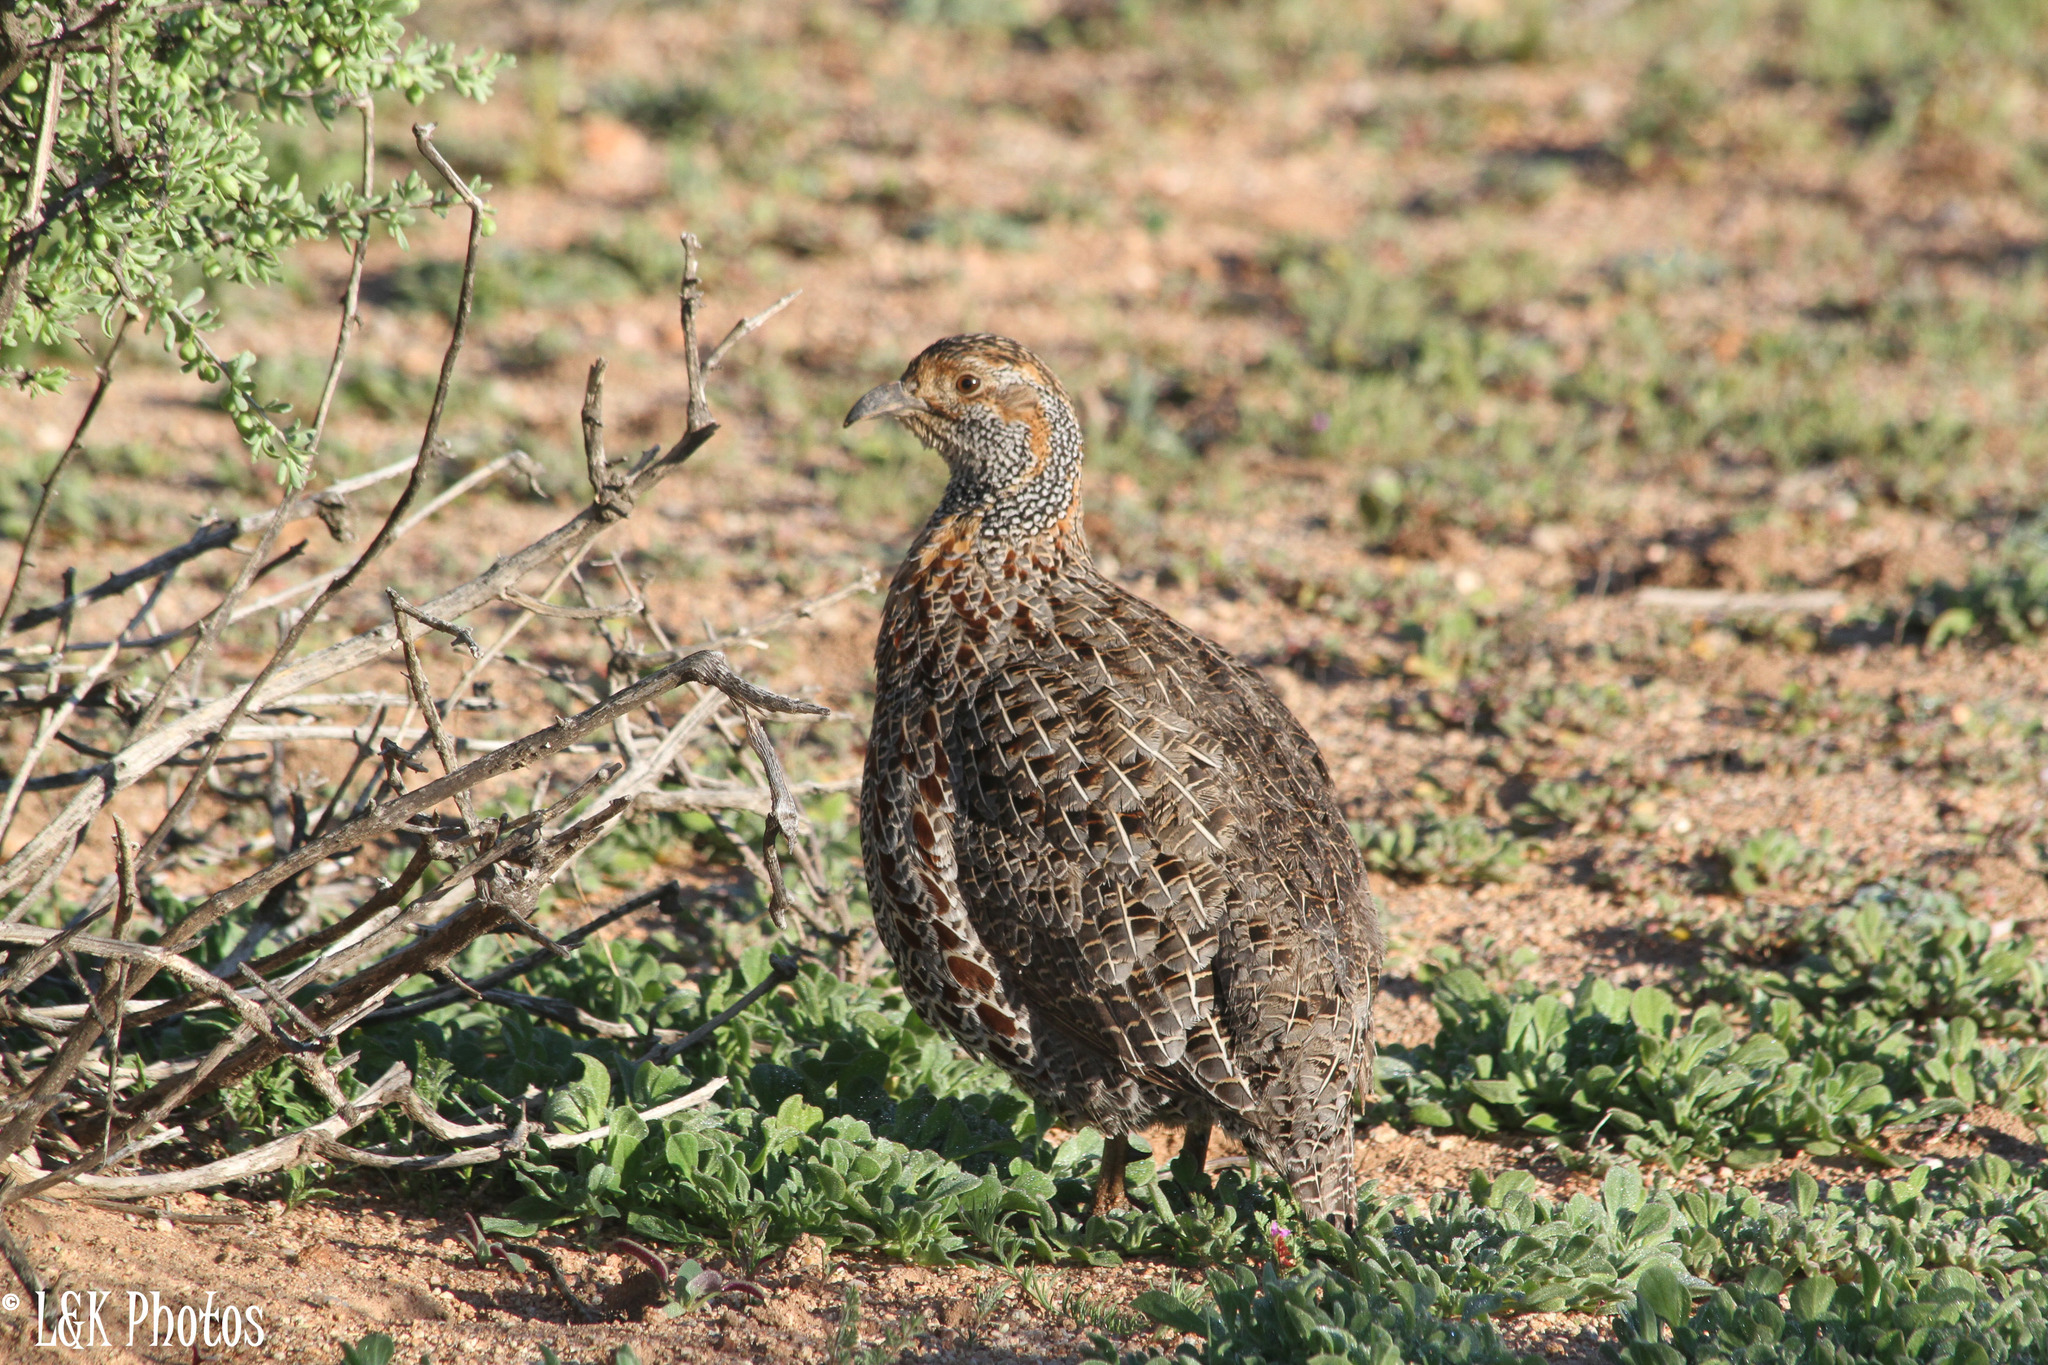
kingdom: Animalia
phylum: Chordata
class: Aves
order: Galliformes
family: Phasianidae
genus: Scleroptila
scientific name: Scleroptila afra
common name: Grey-winged francolin
